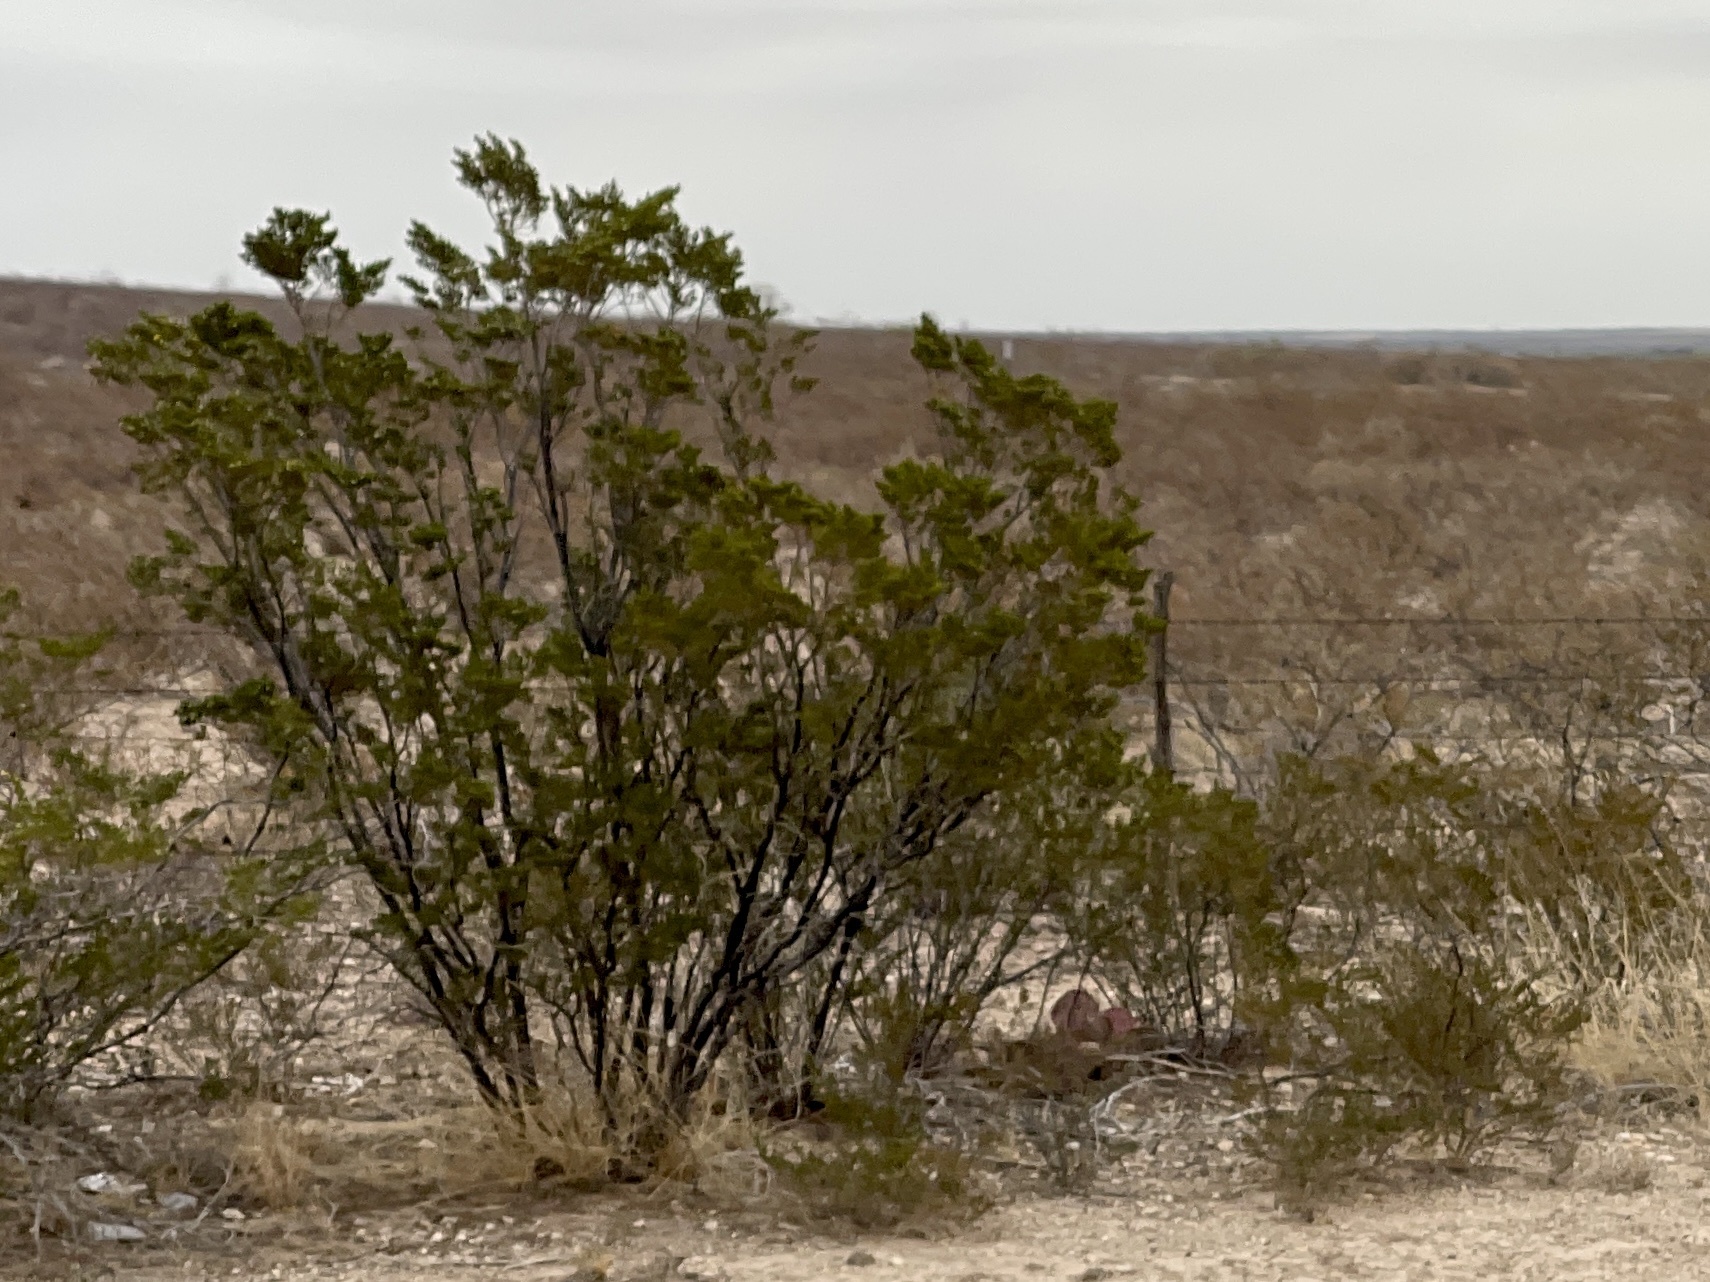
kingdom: Plantae
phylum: Tracheophyta
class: Magnoliopsida
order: Zygophyllales
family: Zygophyllaceae
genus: Larrea
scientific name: Larrea tridentata
